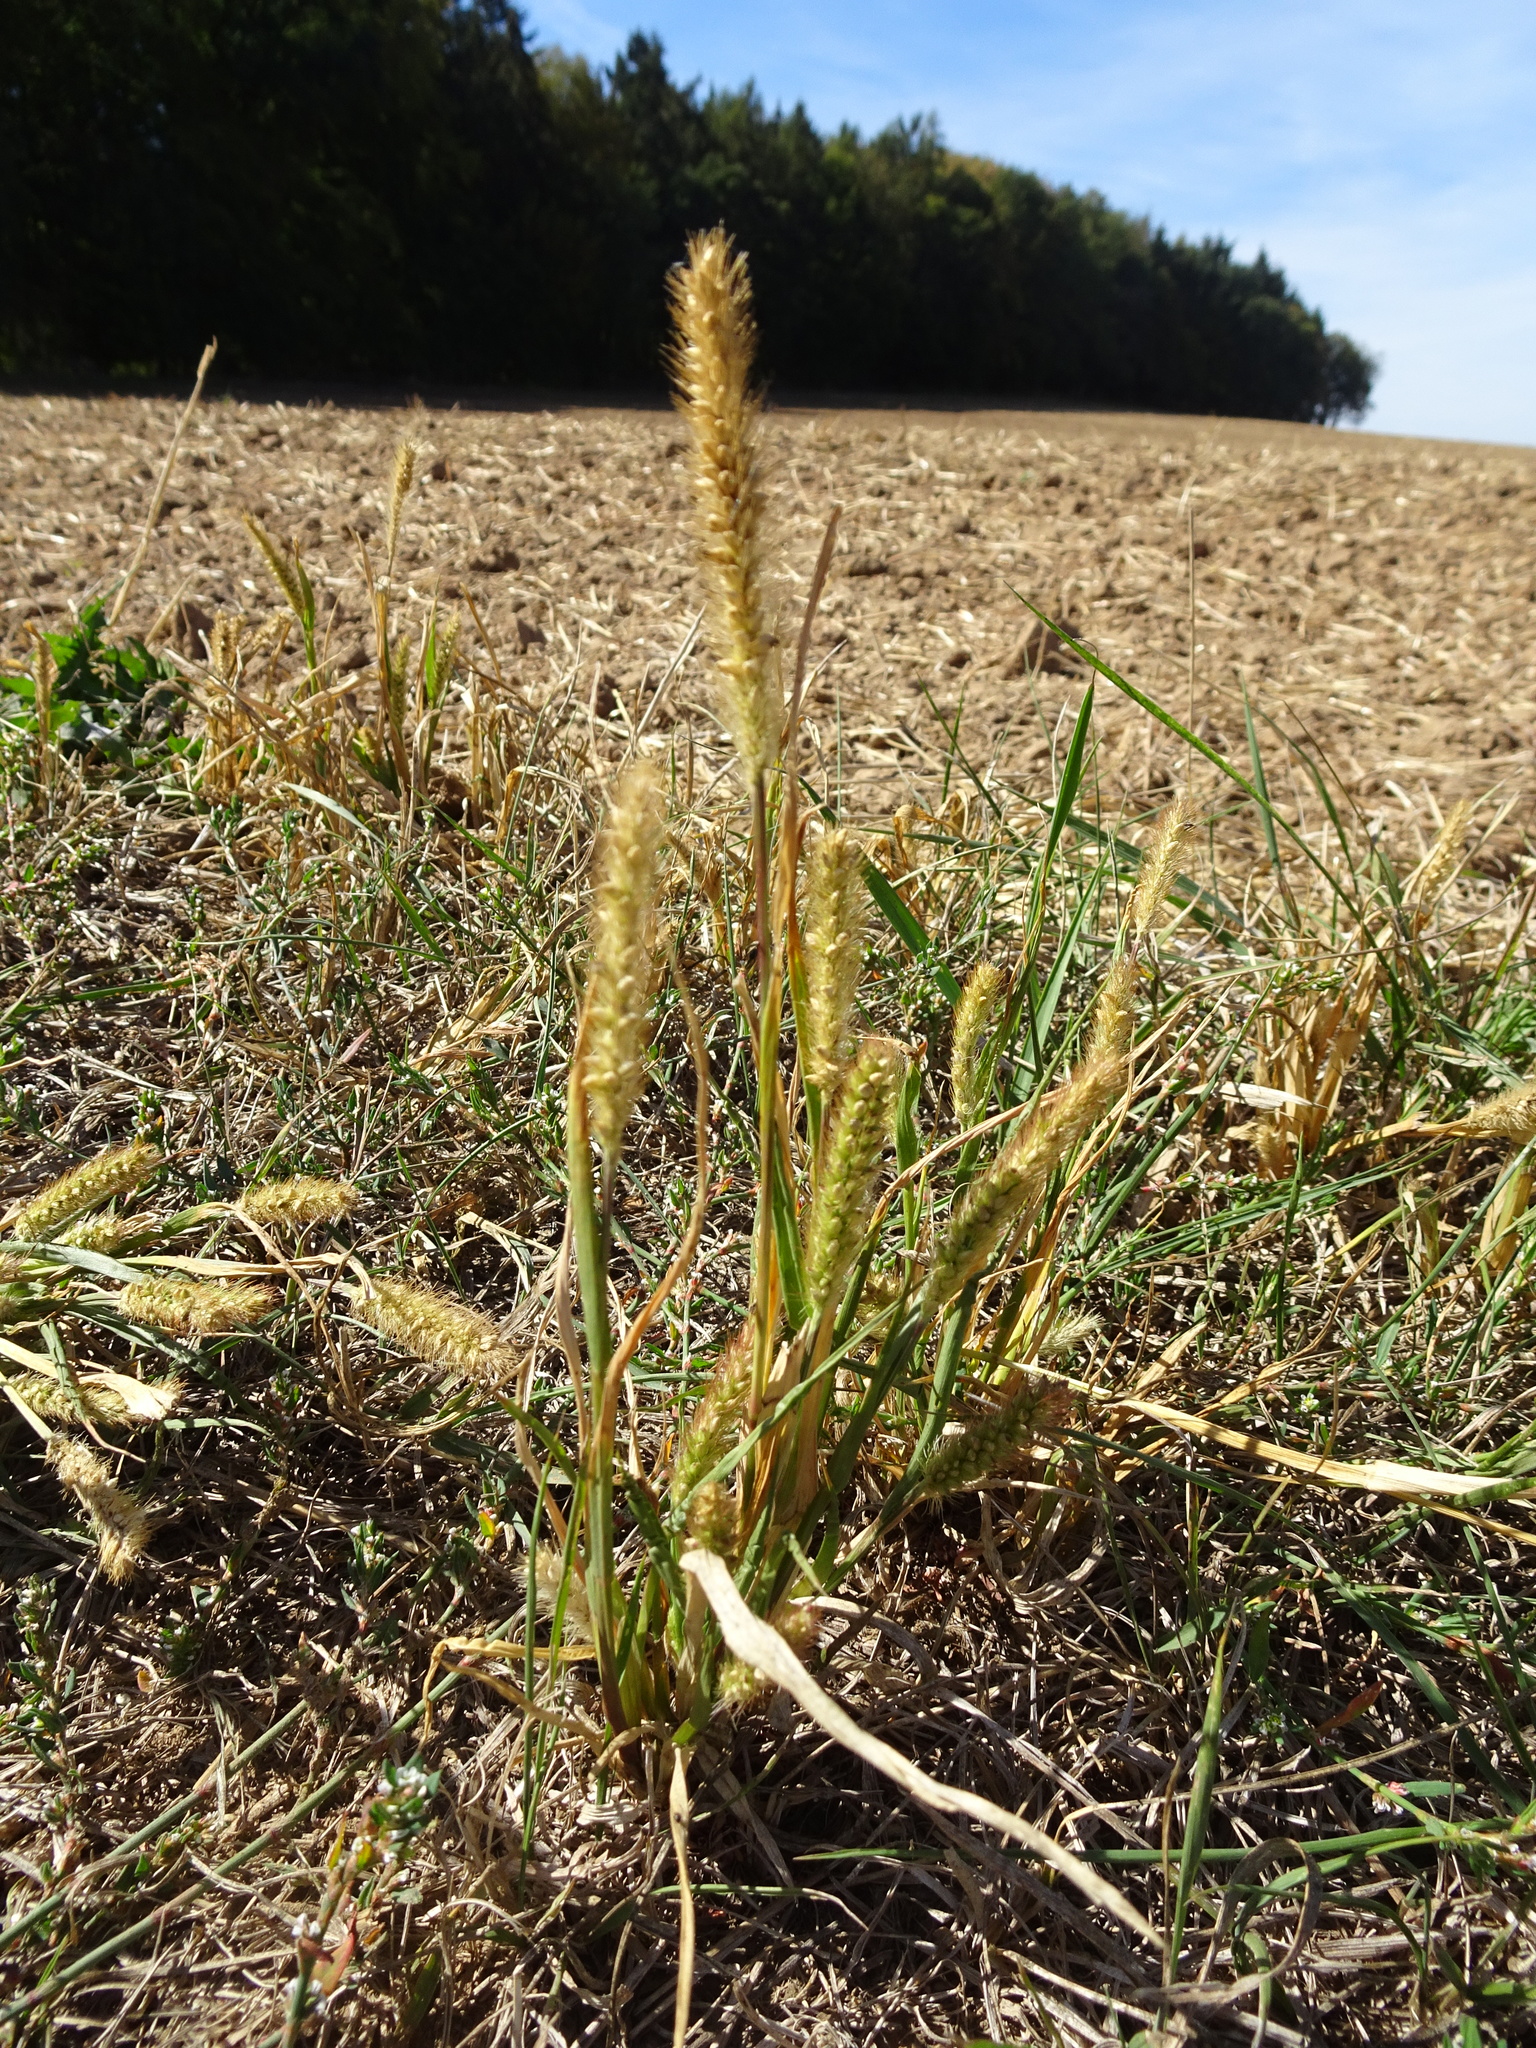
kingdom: Plantae
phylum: Tracheophyta
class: Liliopsida
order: Poales
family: Poaceae
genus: Setaria
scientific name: Setaria pumila
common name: Yellow bristle-grass
